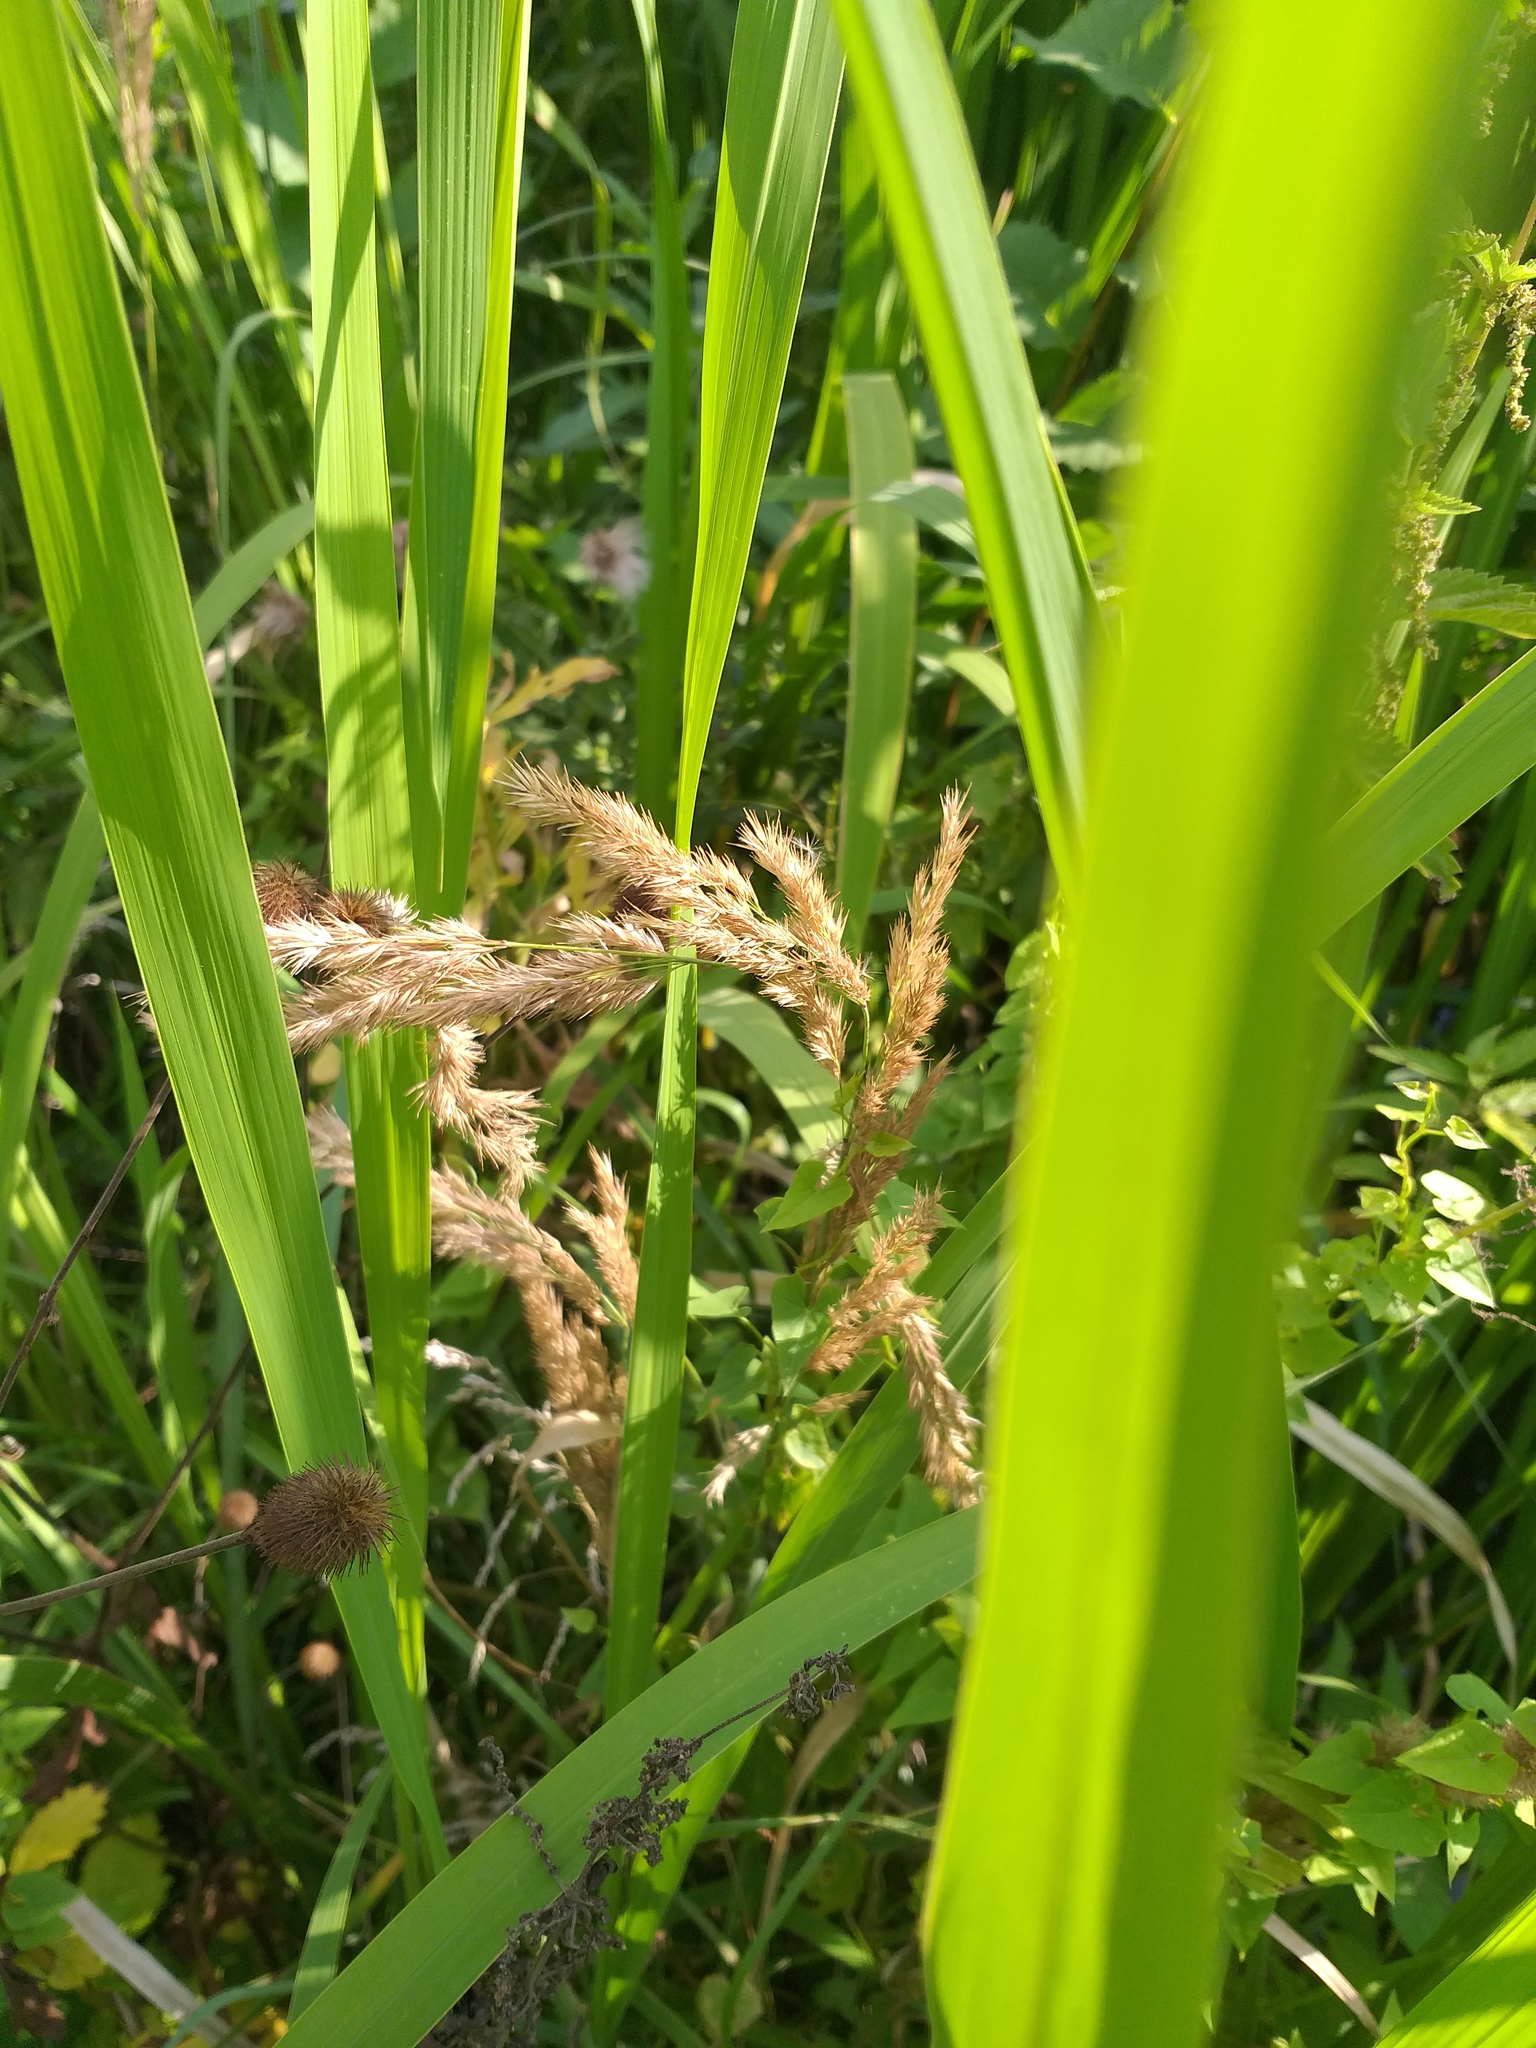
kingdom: Plantae
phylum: Tracheophyta
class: Liliopsida
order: Poales
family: Poaceae
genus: Calamagrostis
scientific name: Calamagrostis epigejos
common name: Wood small-reed
